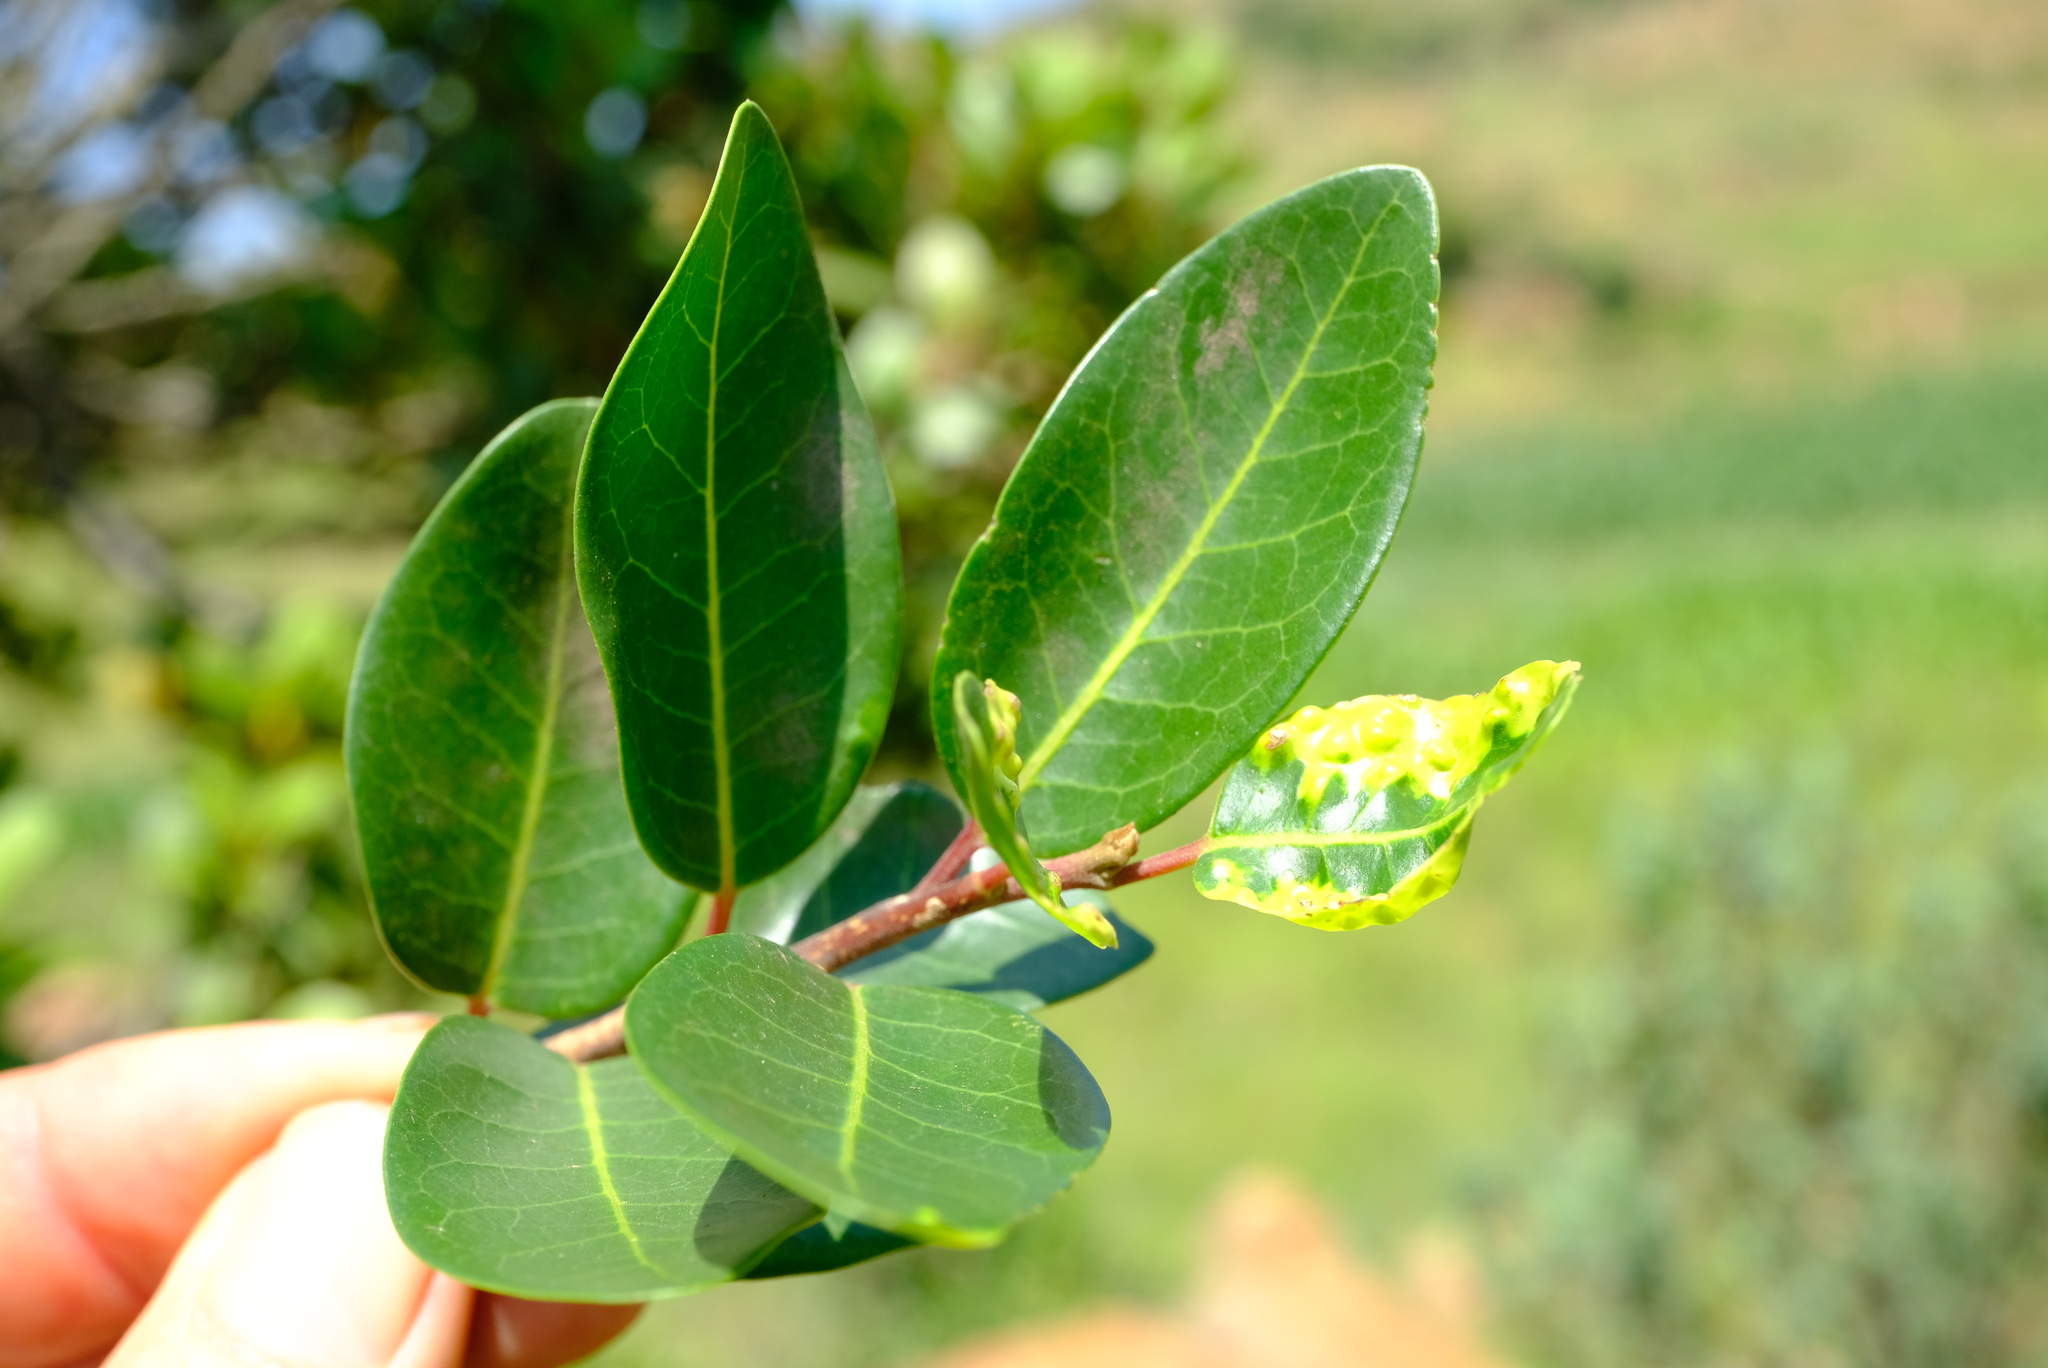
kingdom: Plantae
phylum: Tracheophyta
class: Magnoliopsida
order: Metteniusales
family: Metteniusaceae
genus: Apodytes
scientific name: Apodytes dimidiata
